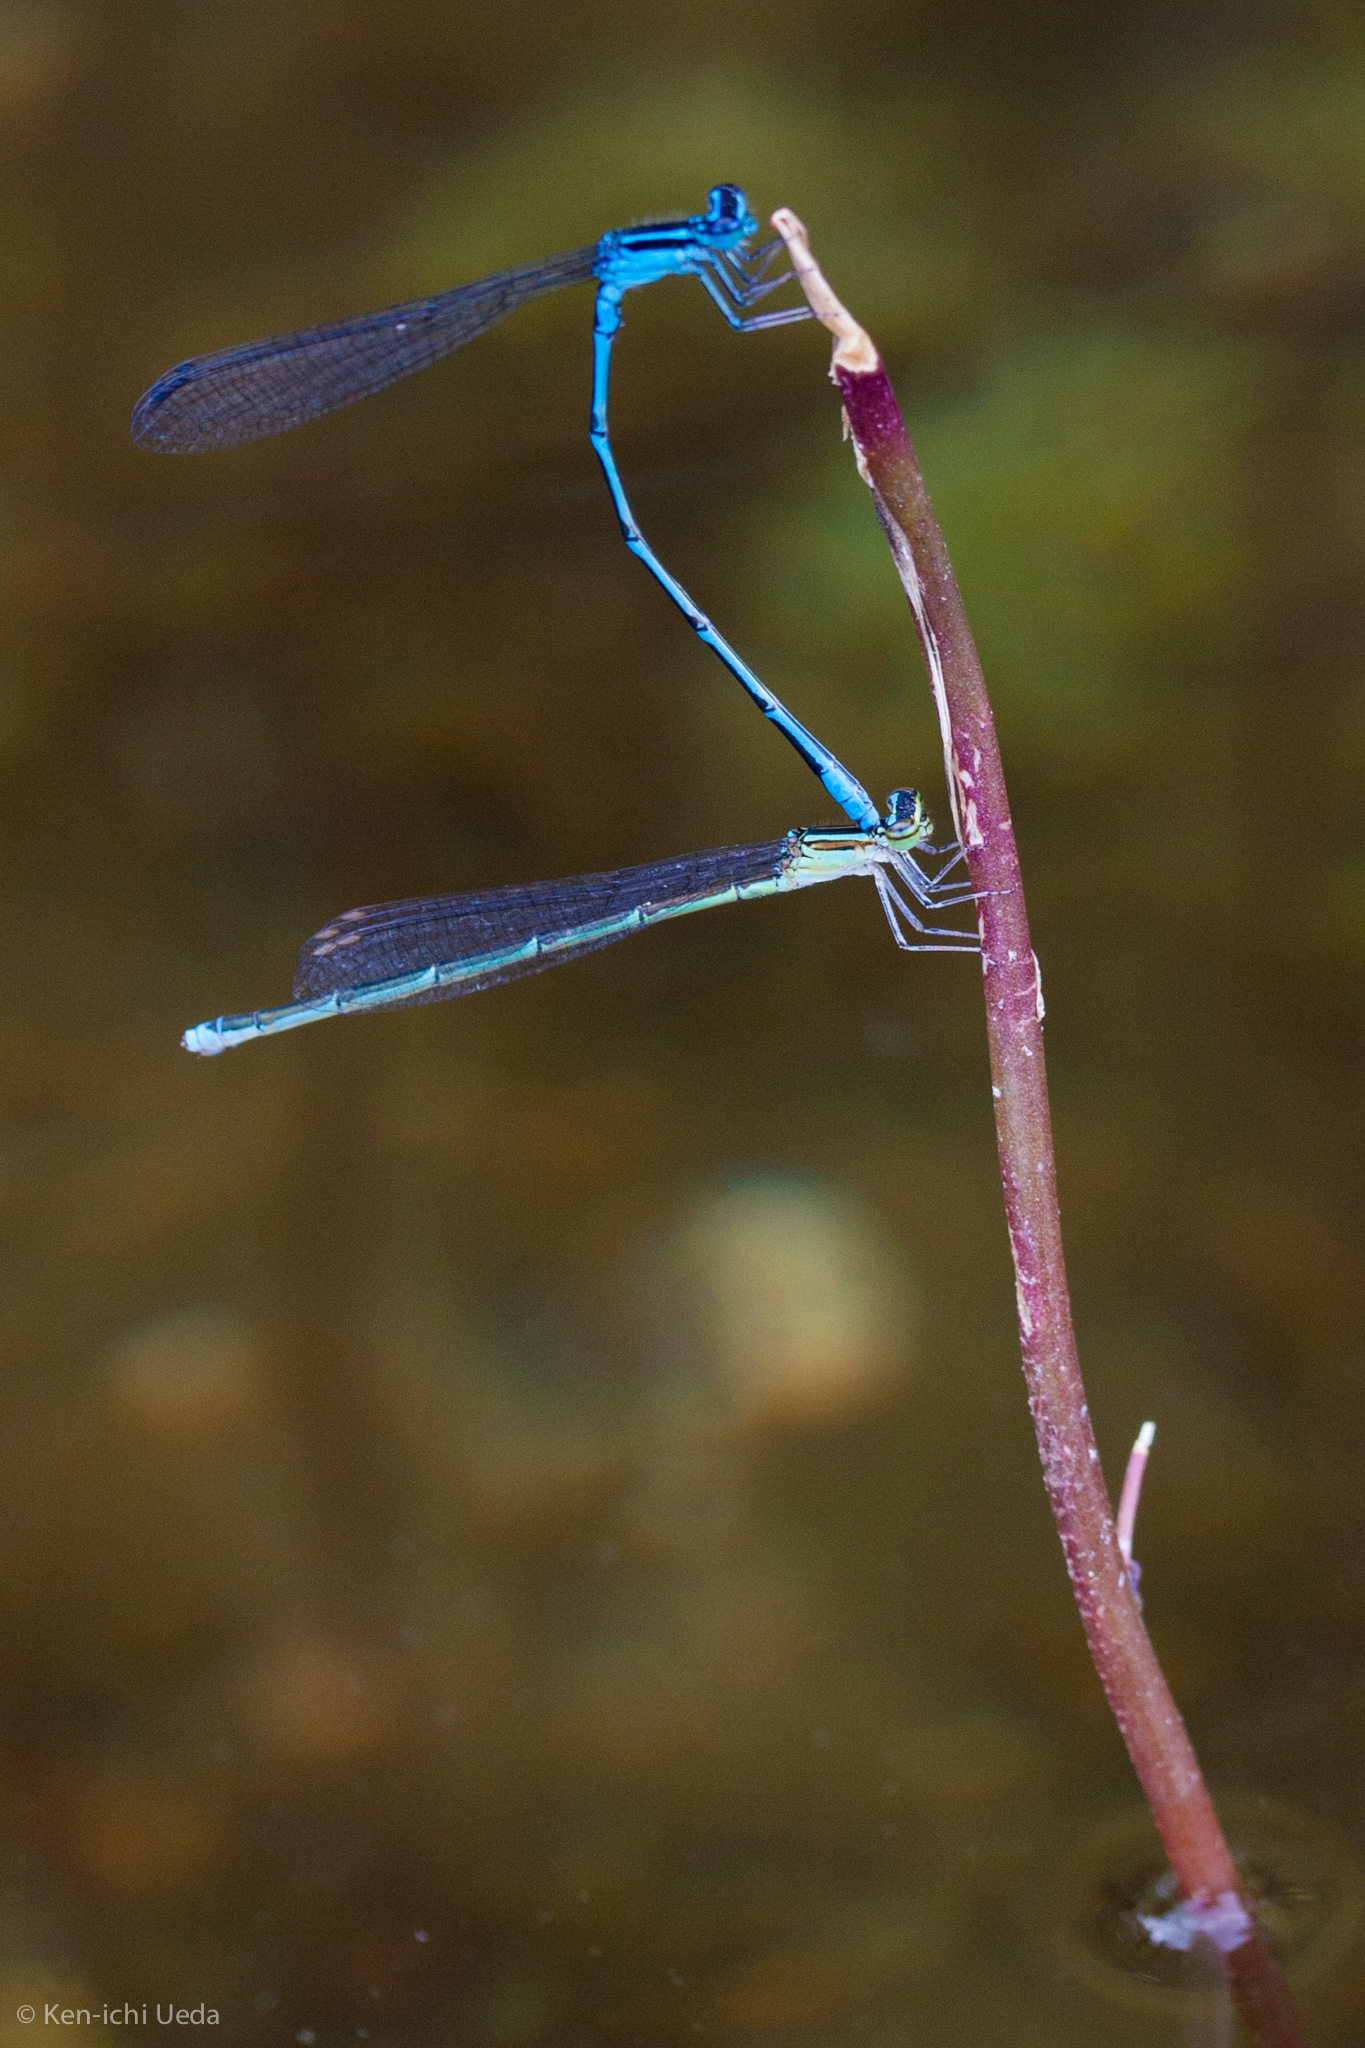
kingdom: Animalia
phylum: Arthropoda
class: Insecta
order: Odonata
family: Coenagrionidae
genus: Enallagma
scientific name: Enallagma exsulans
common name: Stream bluet
